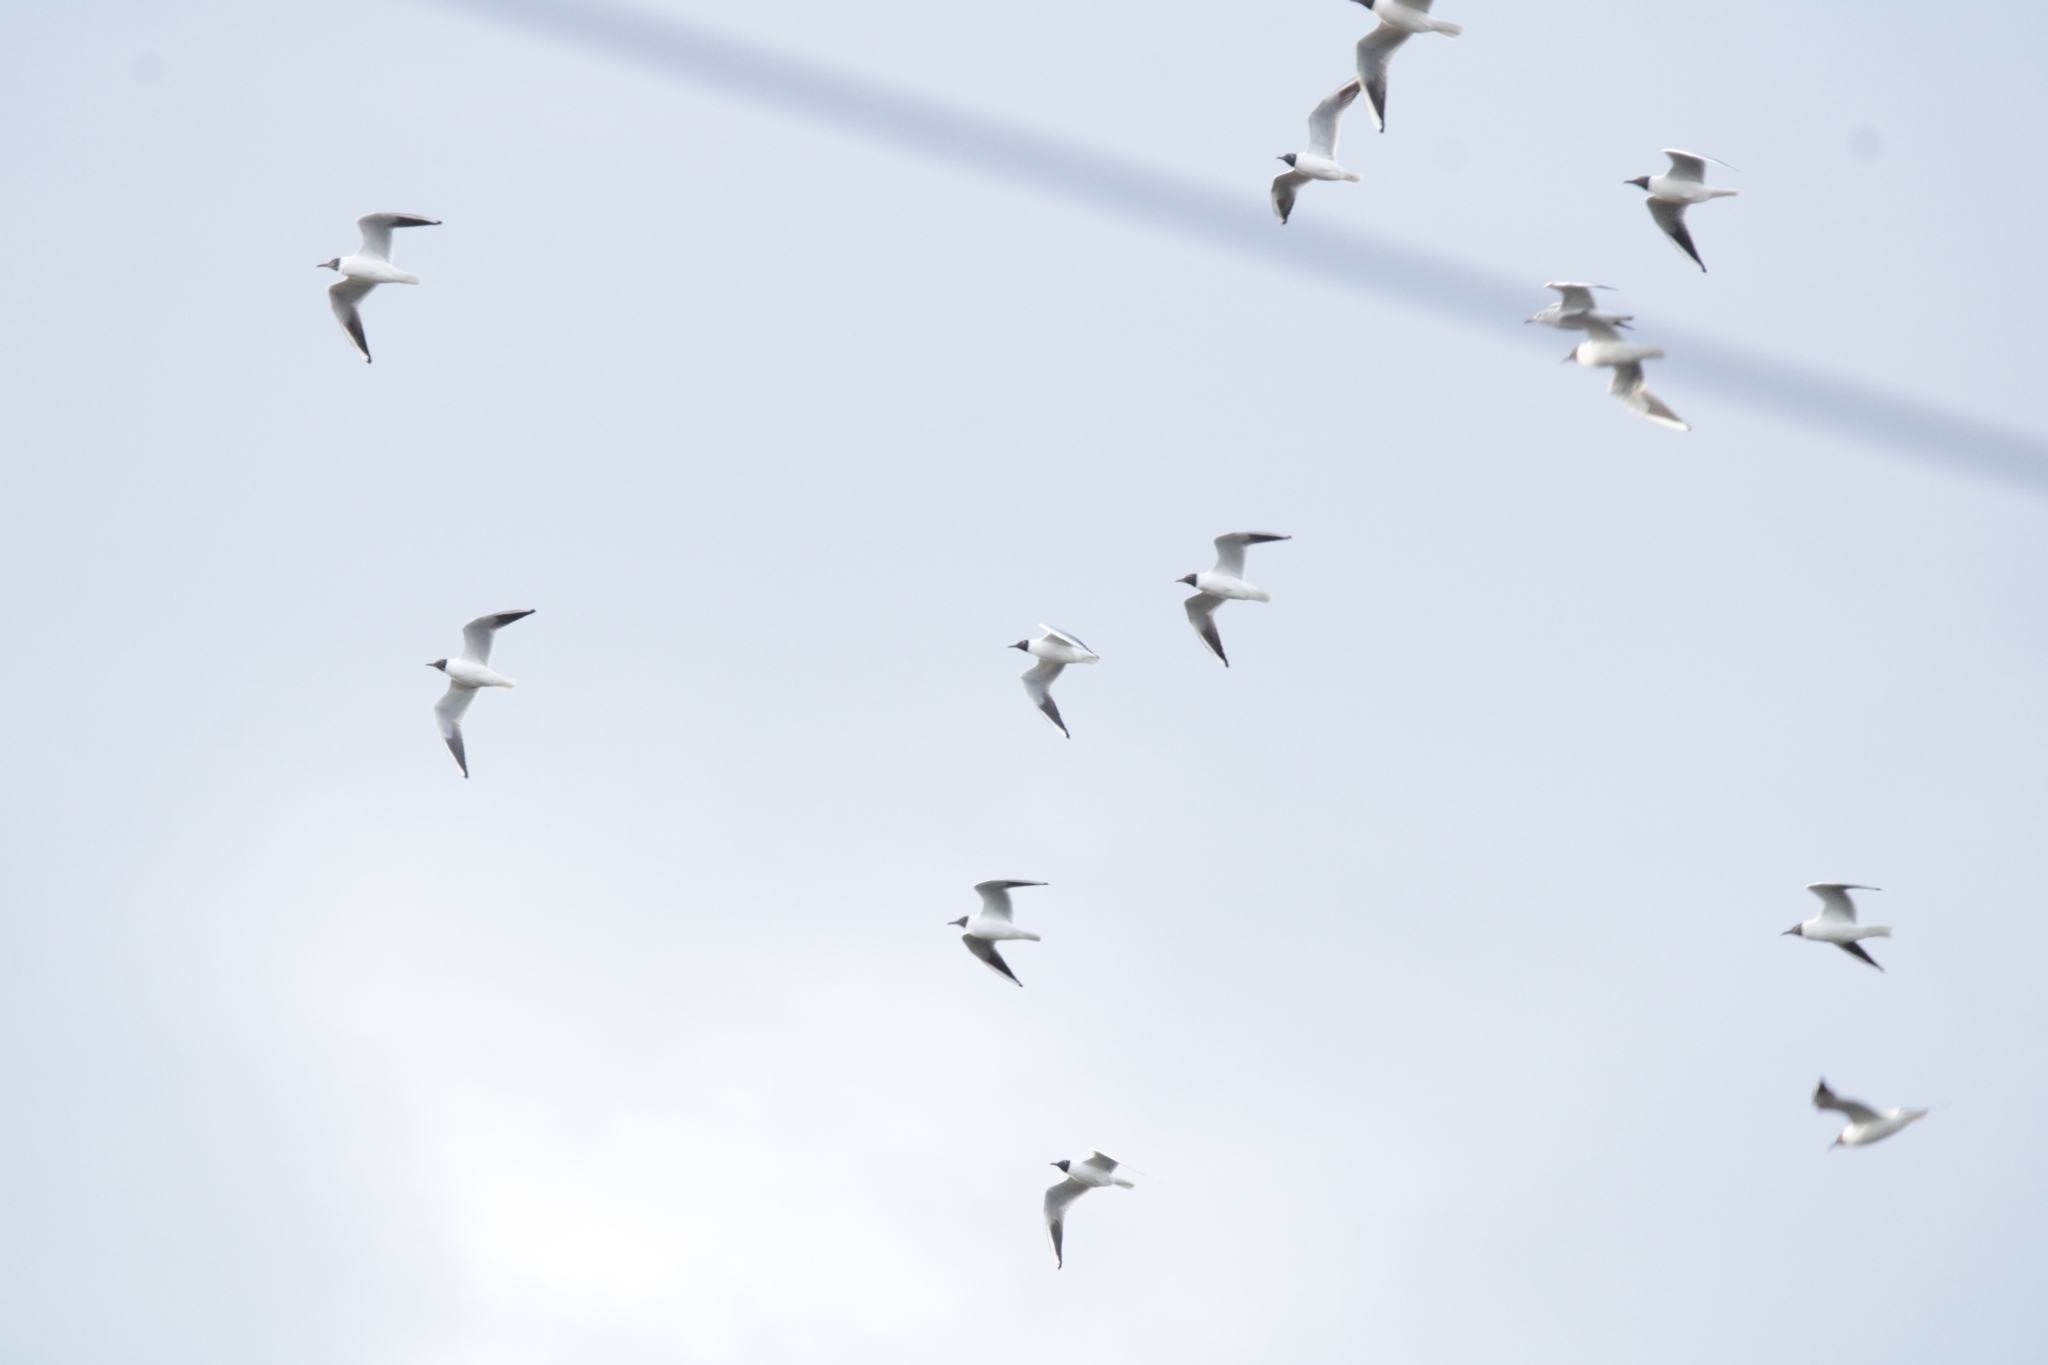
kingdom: Animalia
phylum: Chordata
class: Aves
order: Charadriiformes
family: Laridae
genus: Chroicocephalus
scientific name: Chroicocephalus ridibundus
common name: Black-headed gull
